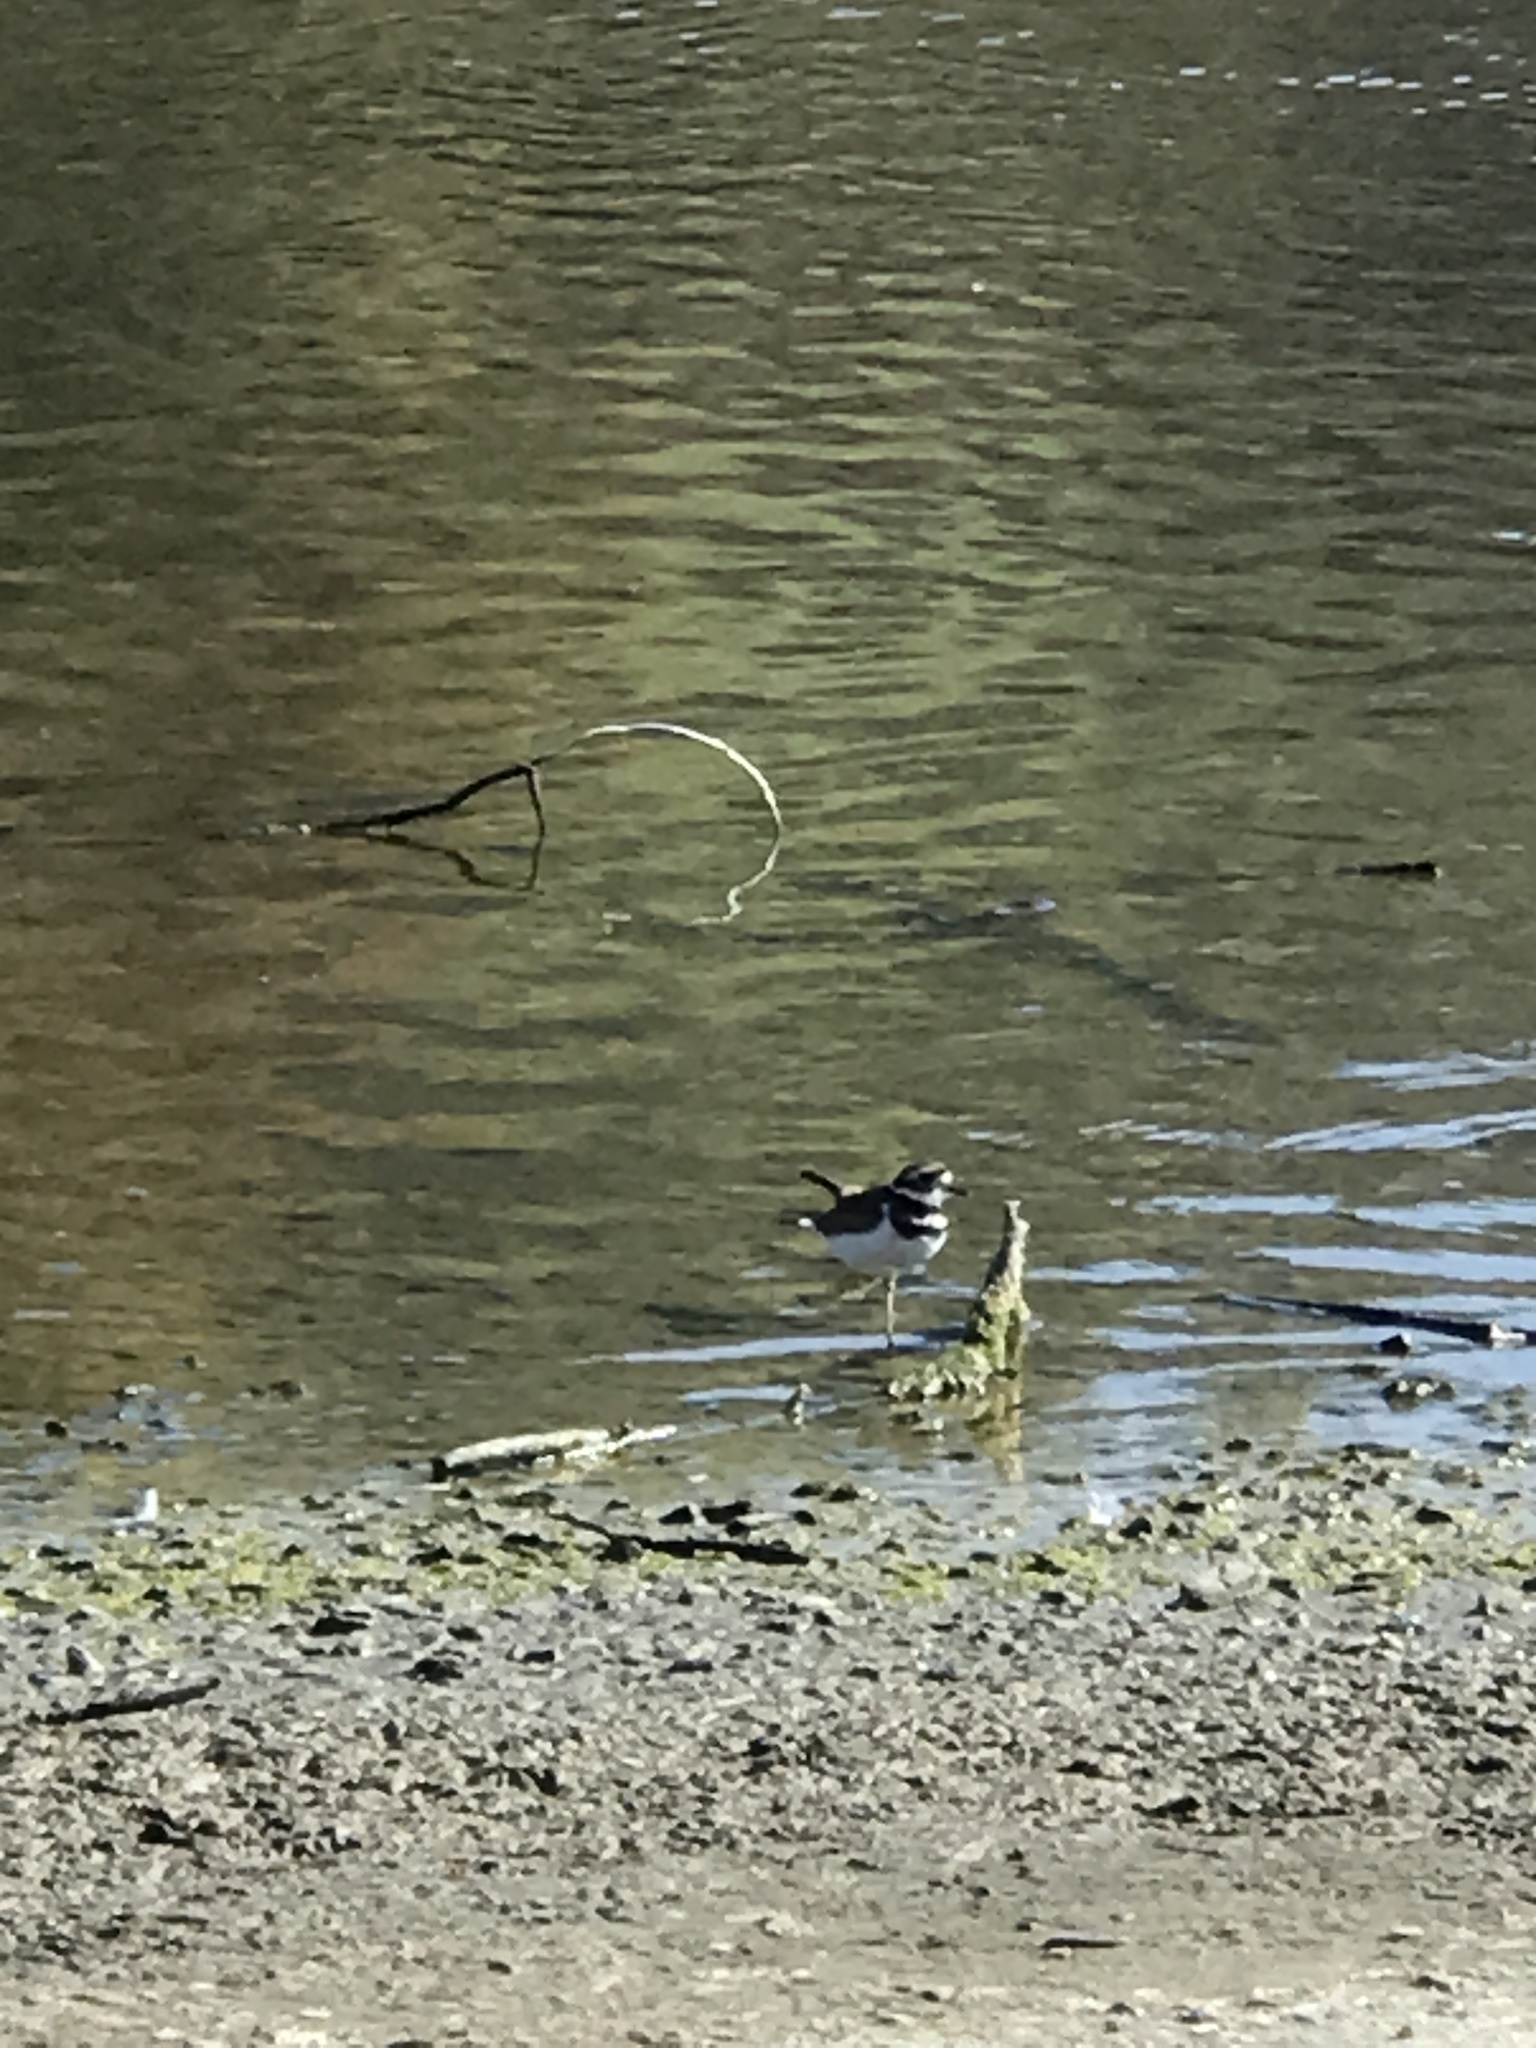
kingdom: Animalia
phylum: Chordata
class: Aves
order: Charadriiformes
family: Charadriidae
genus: Charadrius
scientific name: Charadrius vociferus
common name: Killdeer
